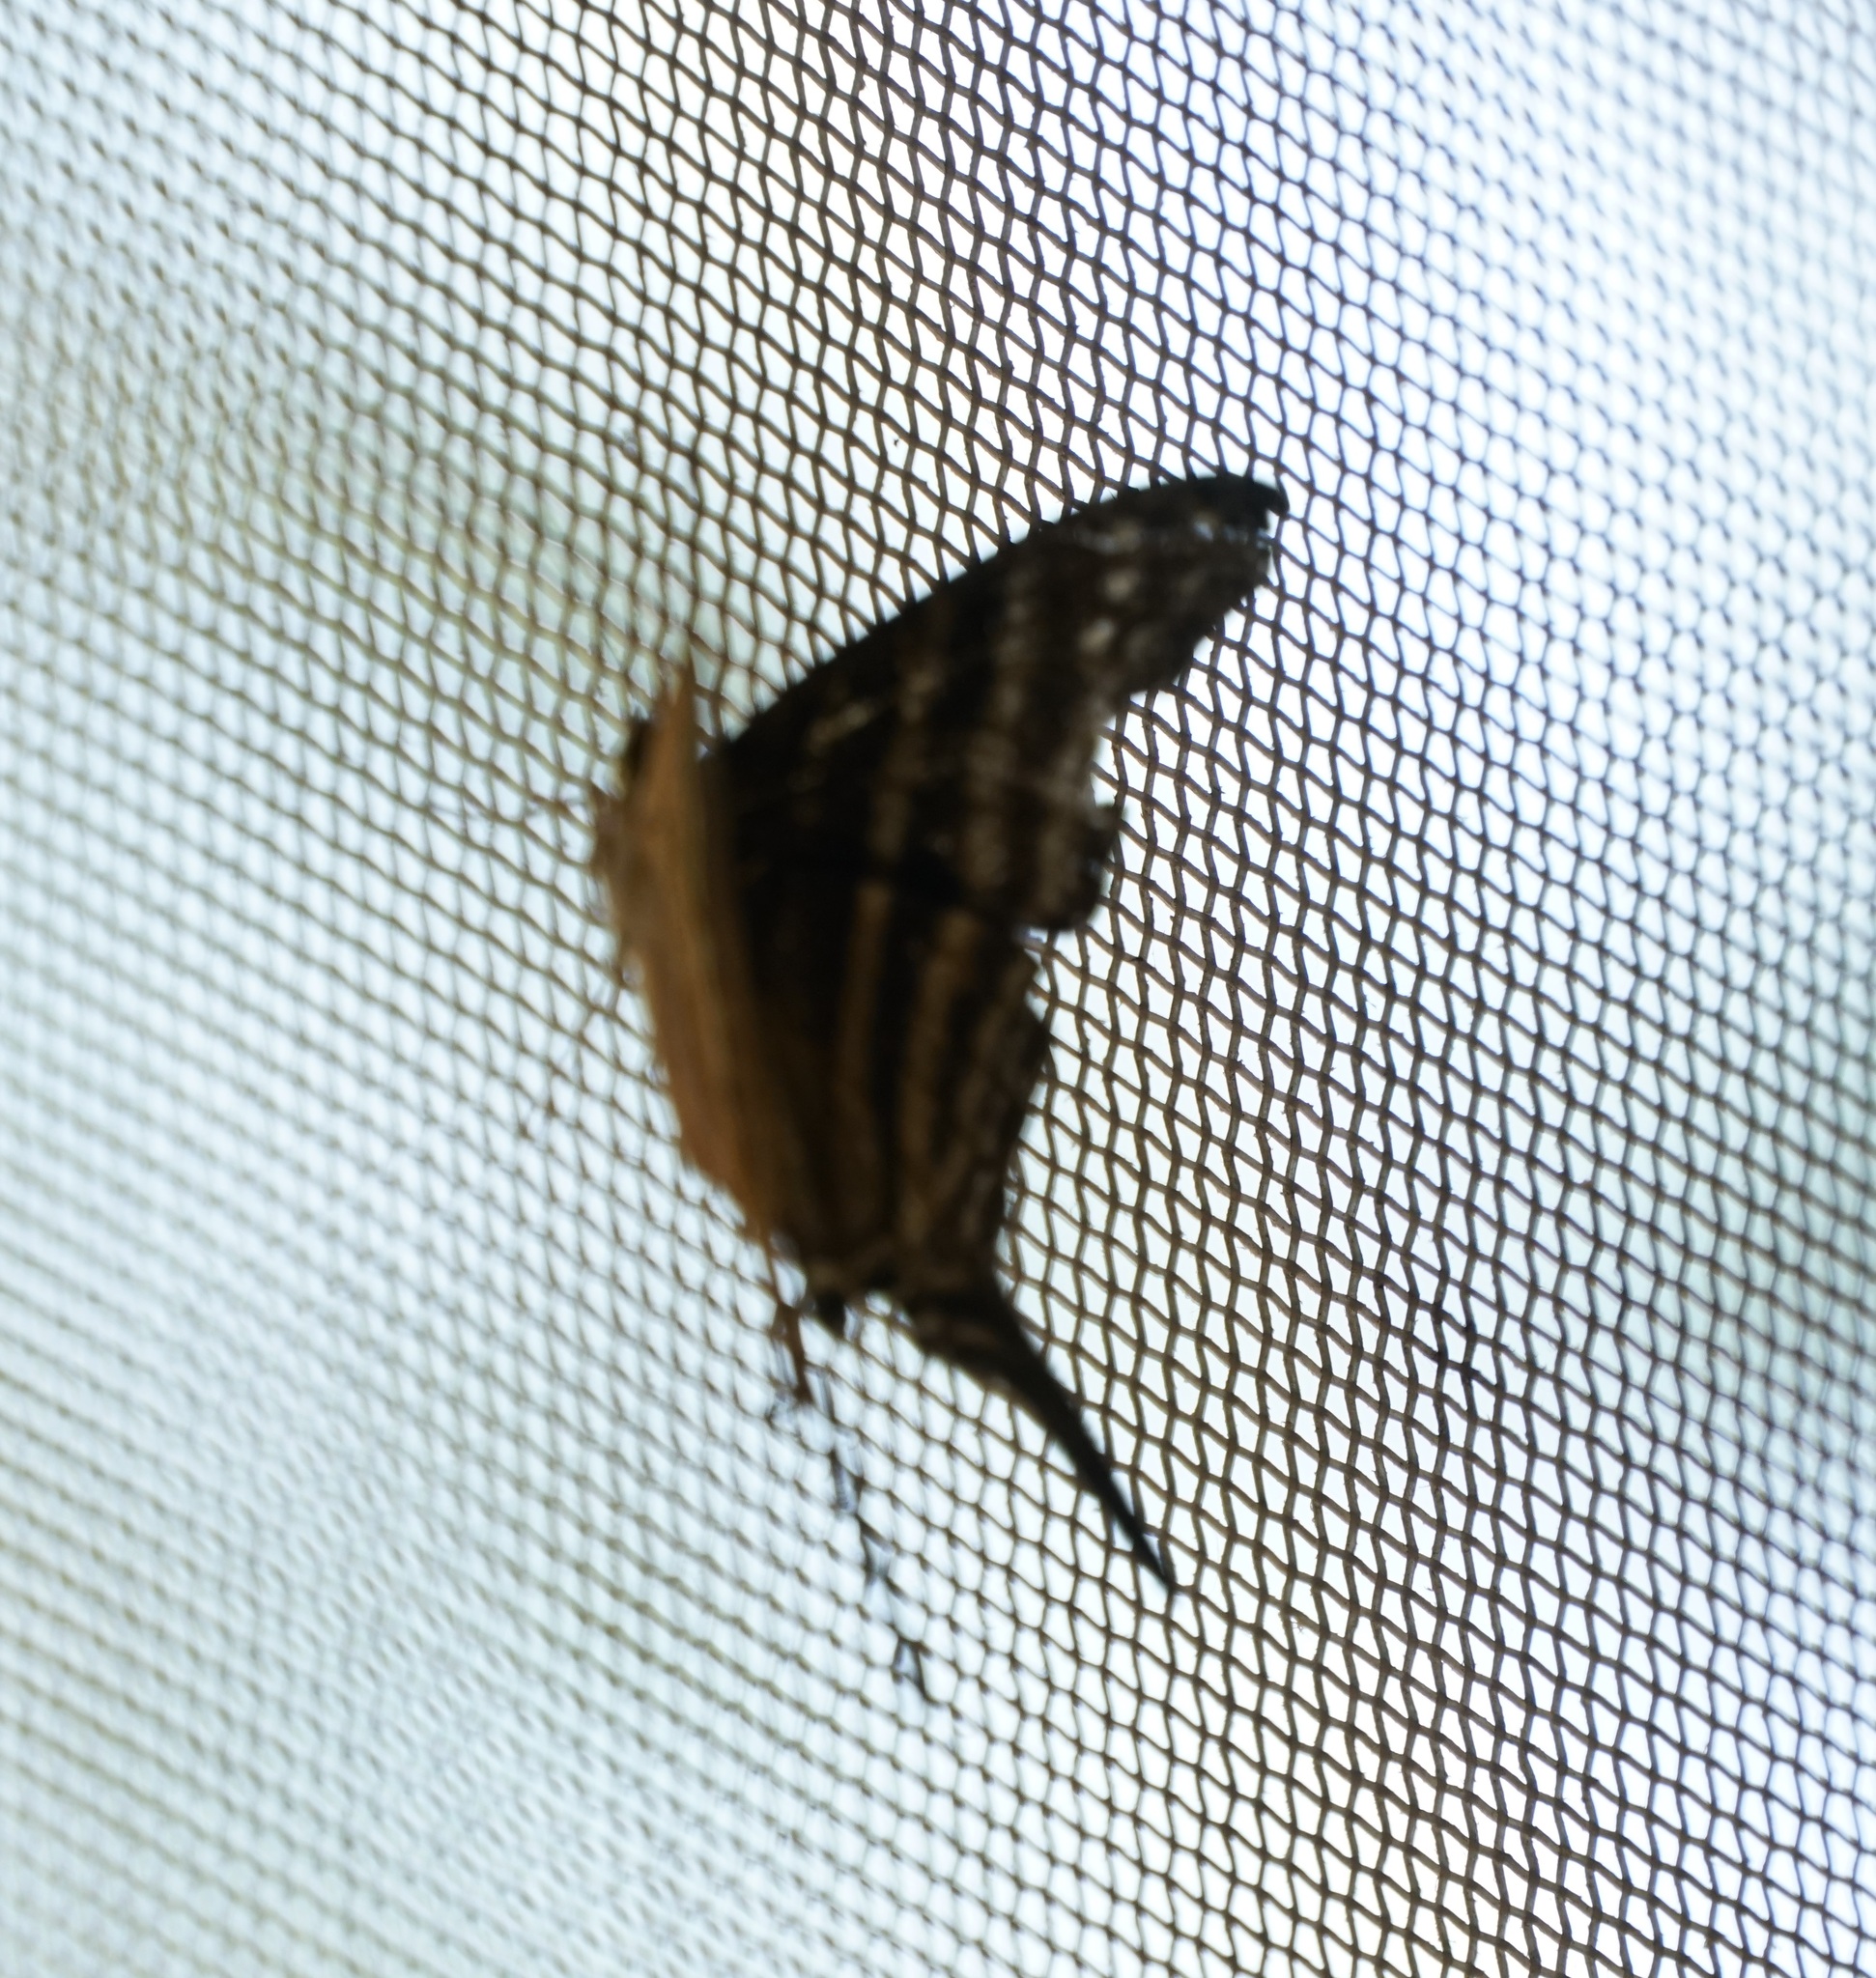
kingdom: Animalia
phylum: Arthropoda
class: Insecta
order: Lepidoptera
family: Nymphalidae
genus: Marpesia
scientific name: Marpesia chiron
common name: Many-banded daggerwing
